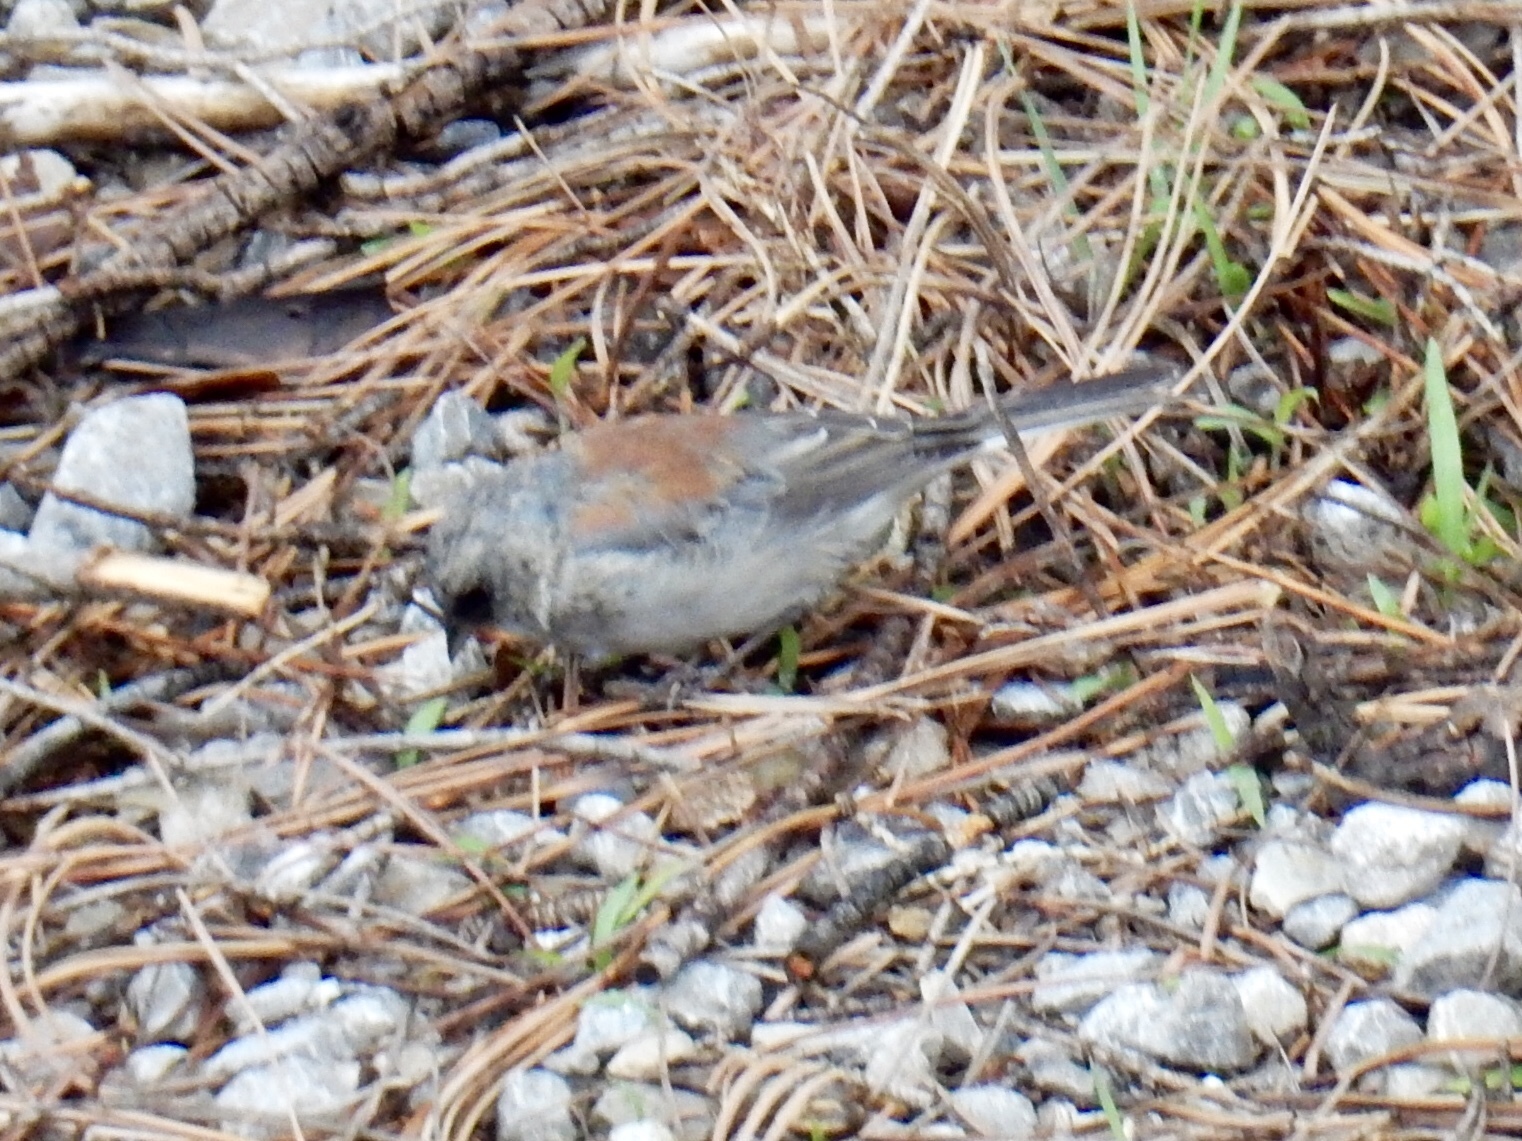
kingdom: Animalia
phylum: Chordata
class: Aves
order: Passeriformes
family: Passerellidae
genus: Junco
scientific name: Junco hyemalis
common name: Dark-eyed junco
